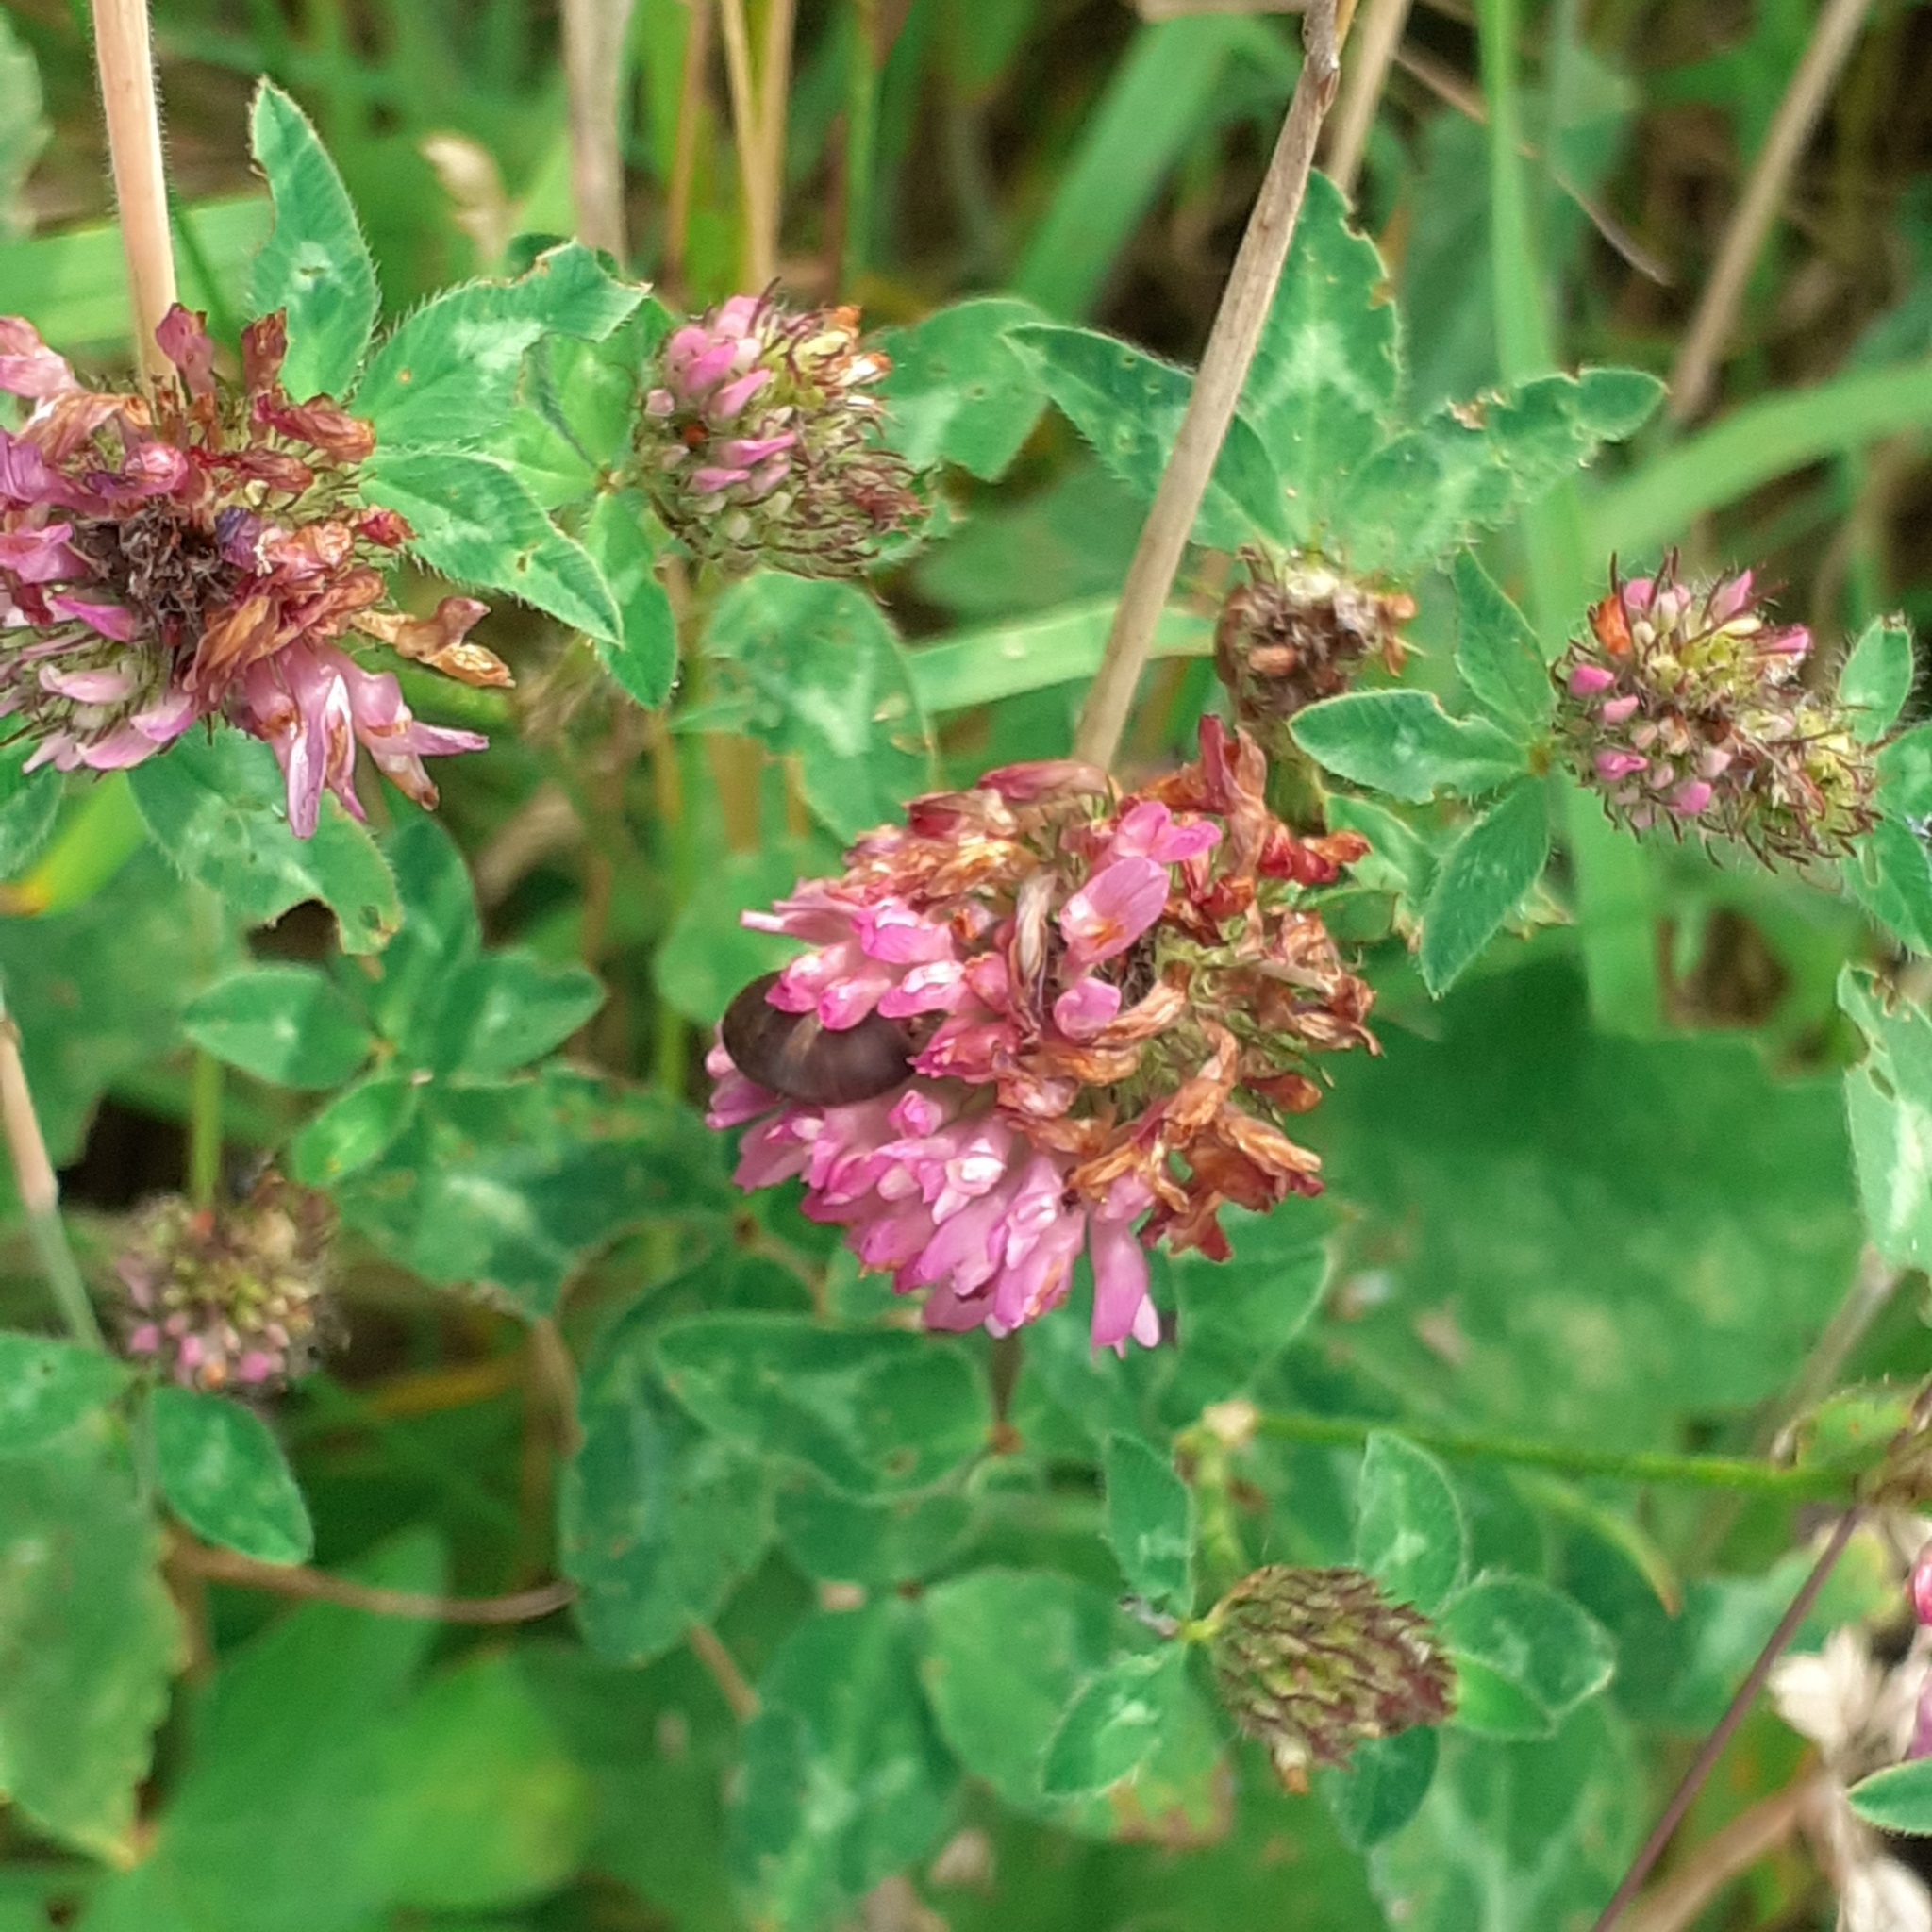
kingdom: Plantae
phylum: Tracheophyta
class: Magnoliopsida
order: Fabales
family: Fabaceae
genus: Trifolium
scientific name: Trifolium pratense
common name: Red clover
